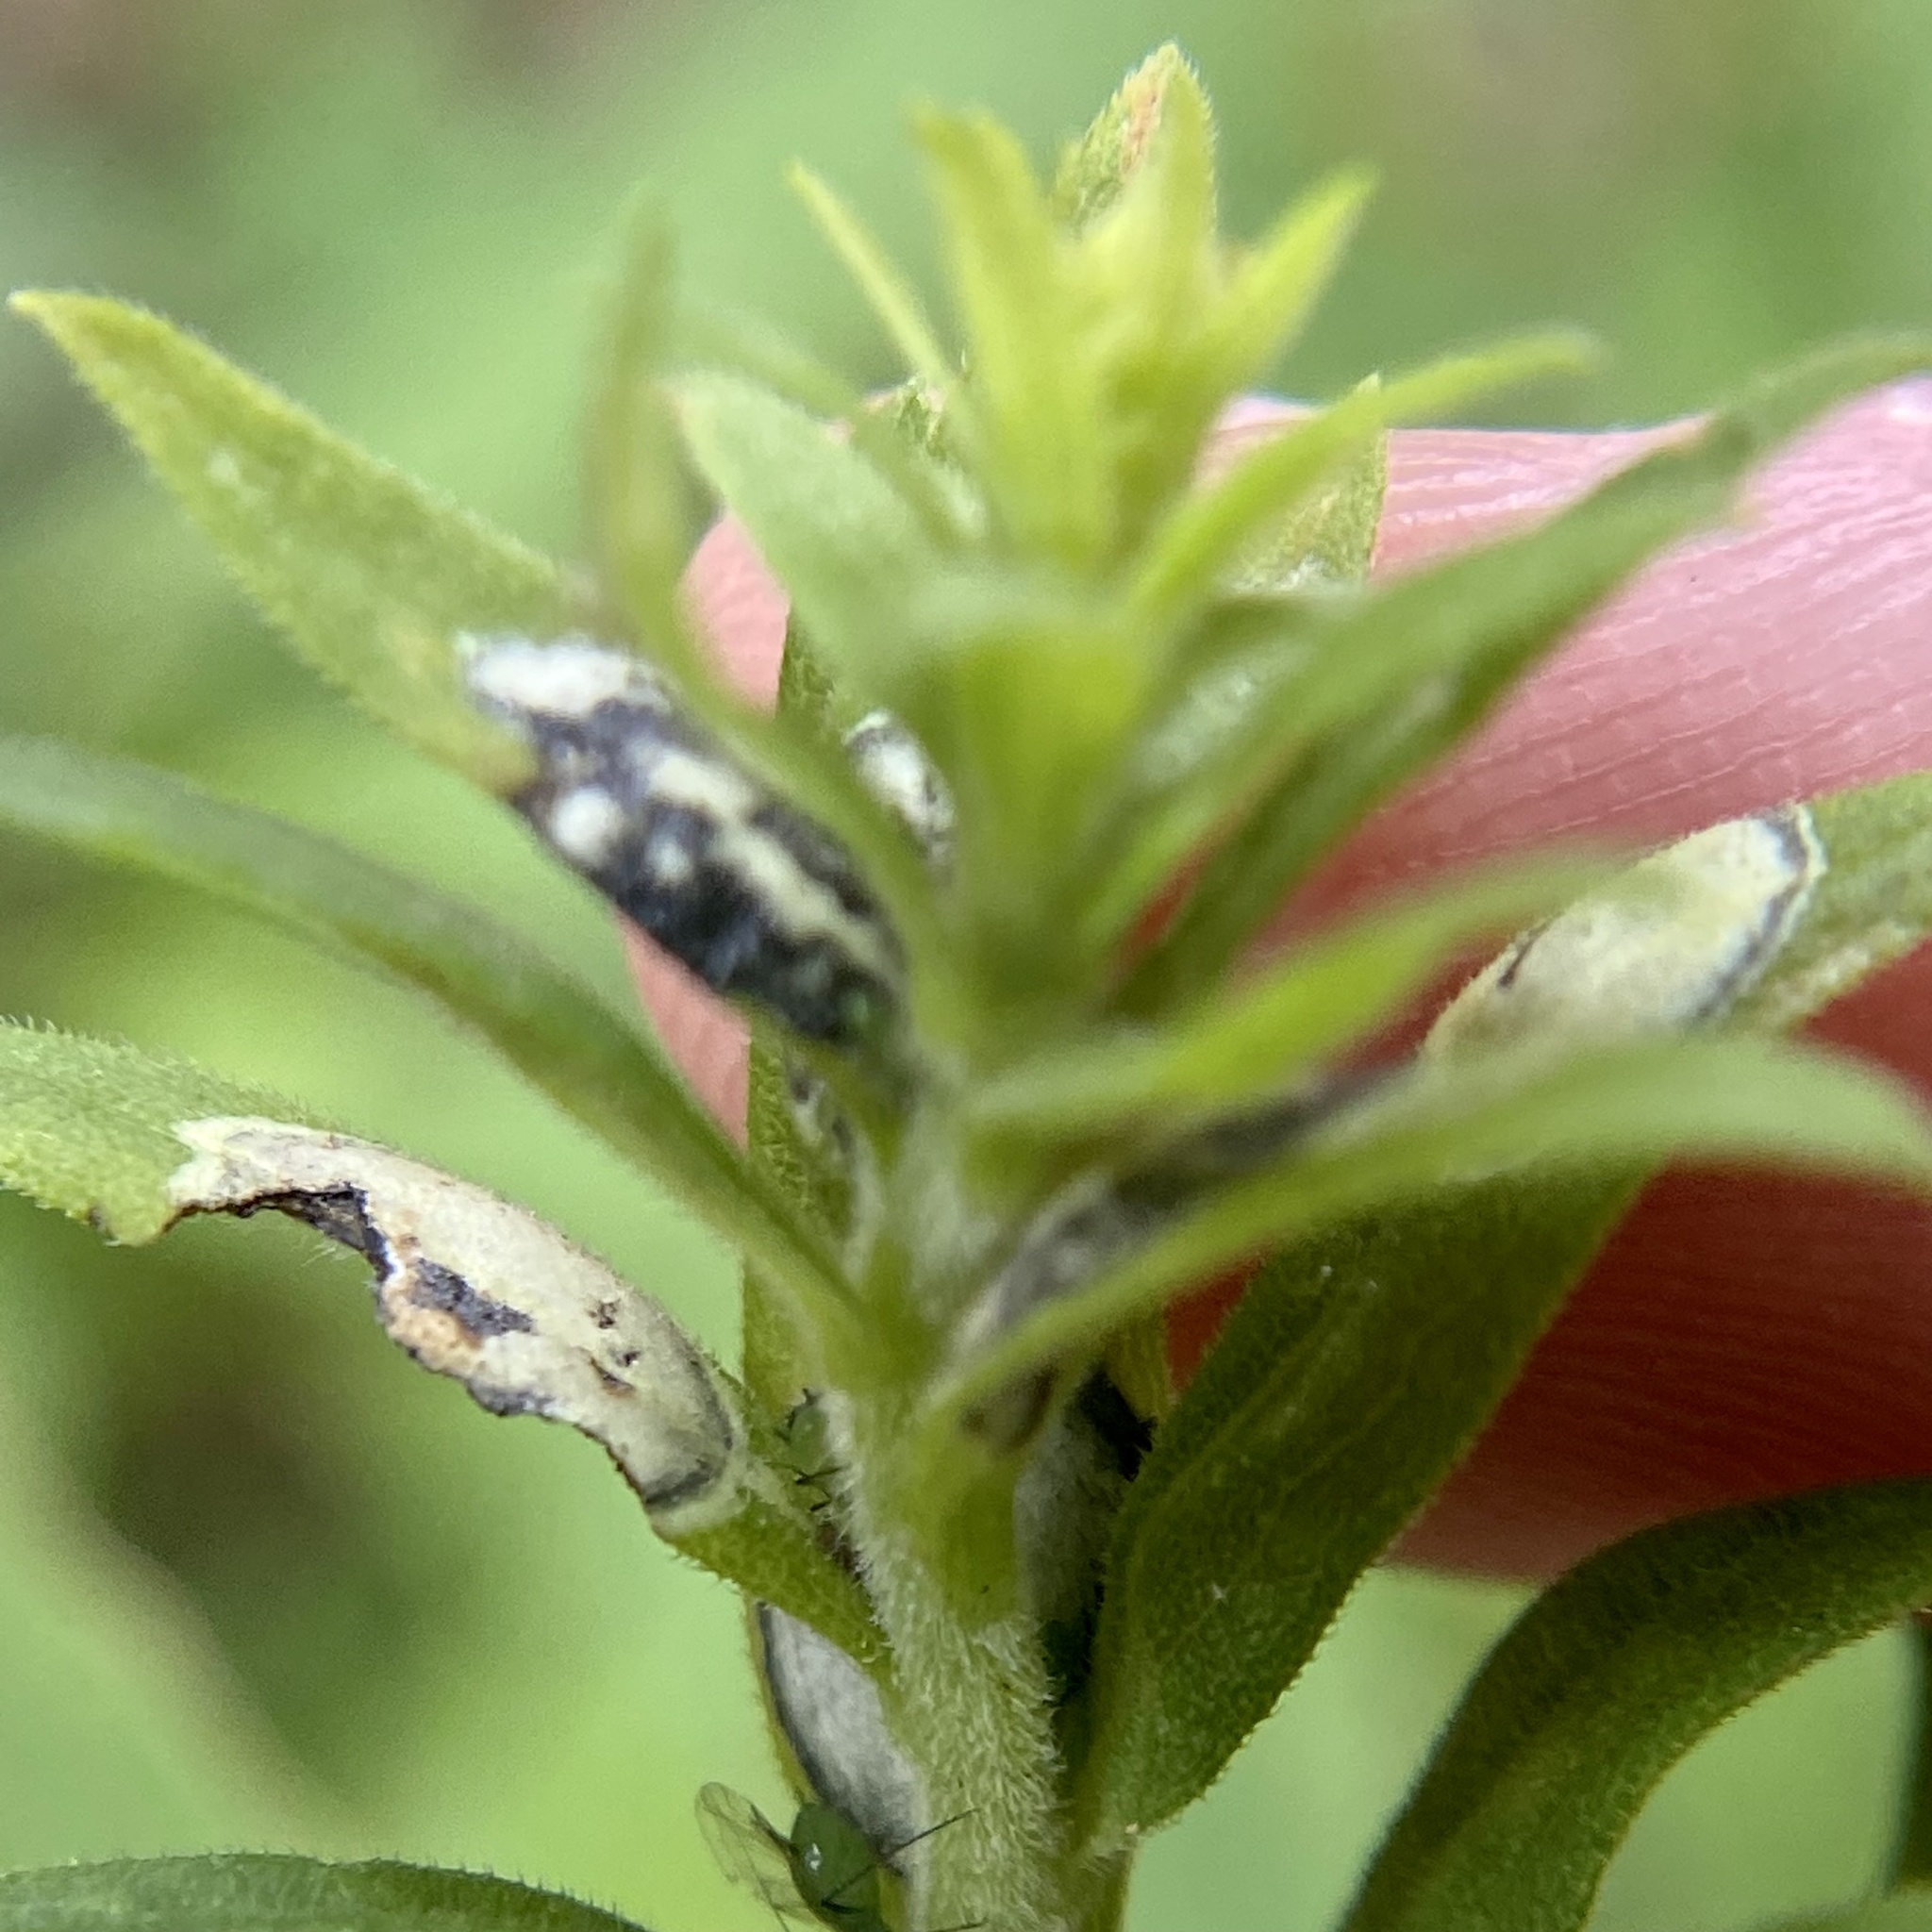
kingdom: Fungi
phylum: Ascomycota
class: Dothideomycetes
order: Botryosphaeriales
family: Botryosphaeriaceae
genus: Botryosphaeria
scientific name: Botryosphaeria dothidea
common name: Asteromyia gall midge fungus
